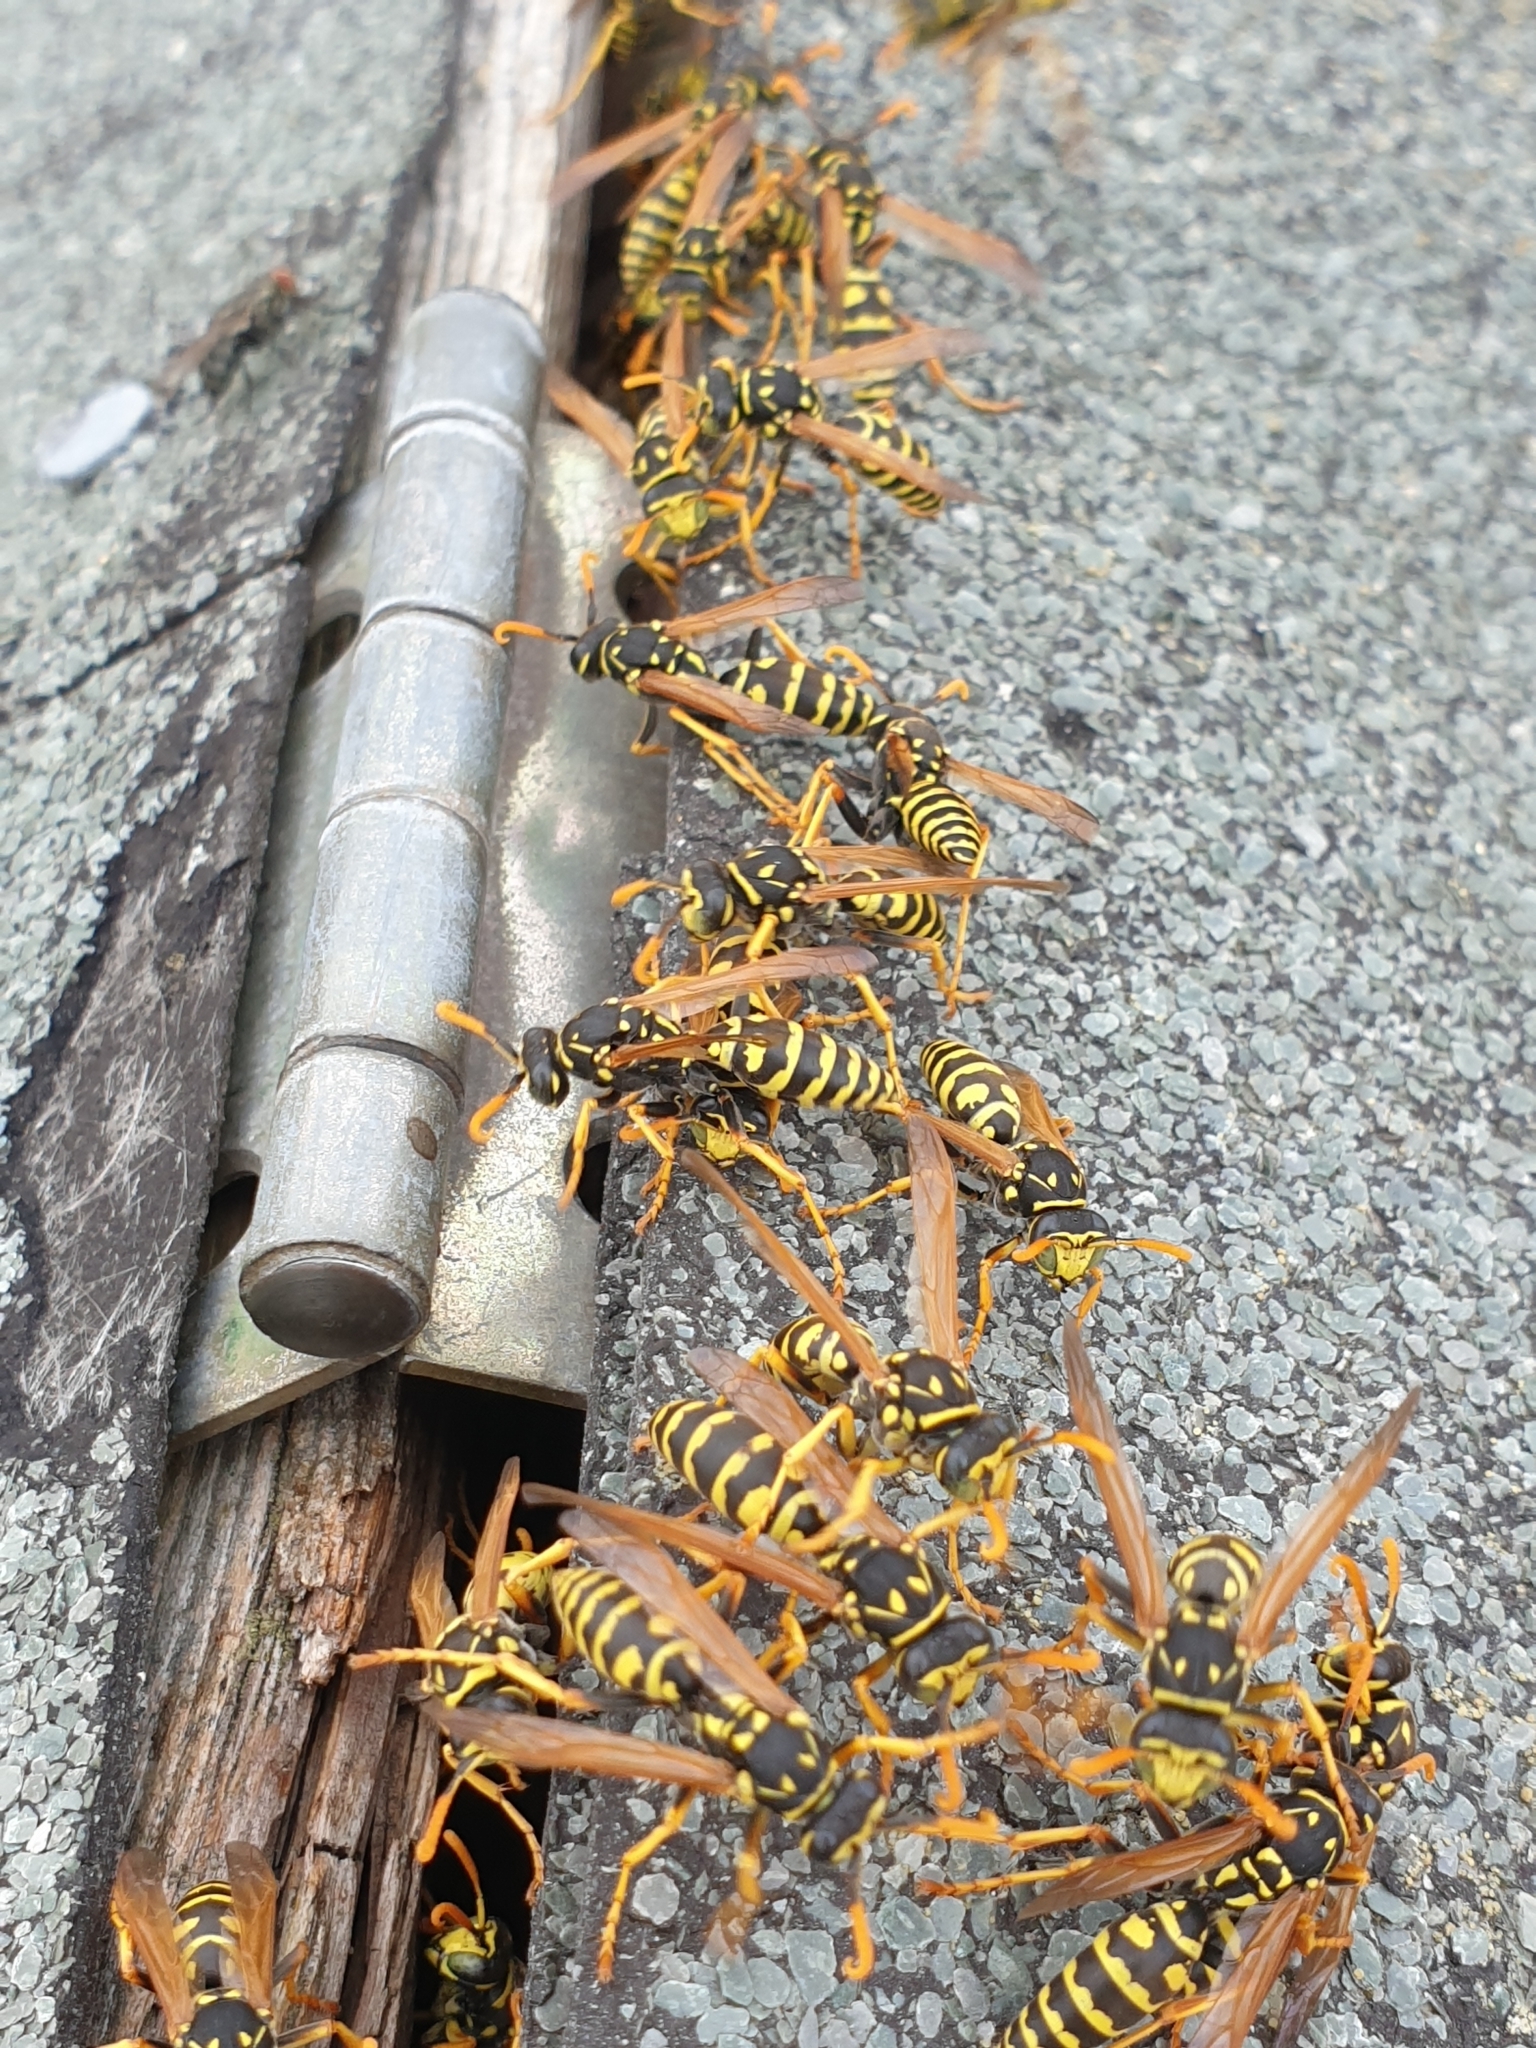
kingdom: Animalia
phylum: Arthropoda
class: Insecta
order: Hymenoptera
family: Eumenidae
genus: Polistes
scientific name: Polistes dominula
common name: Paper wasp
